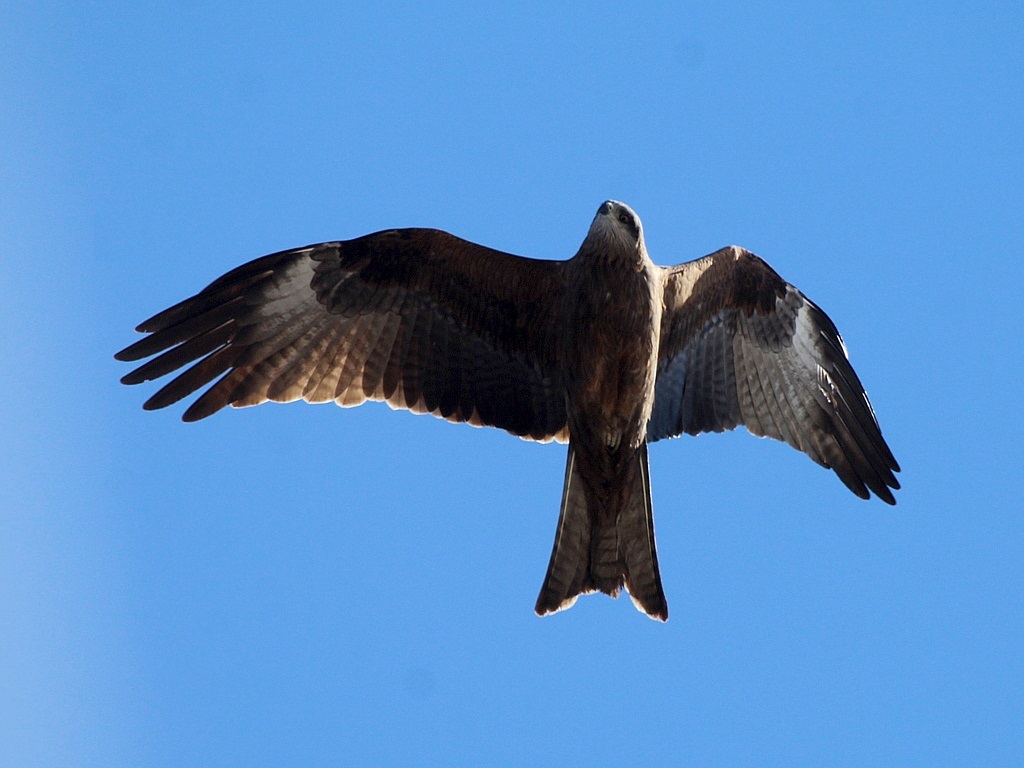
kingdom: Animalia
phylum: Chordata
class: Aves
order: Accipitriformes
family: Accipitridae
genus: Milvus
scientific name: Milvus migrans
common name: Black kite
